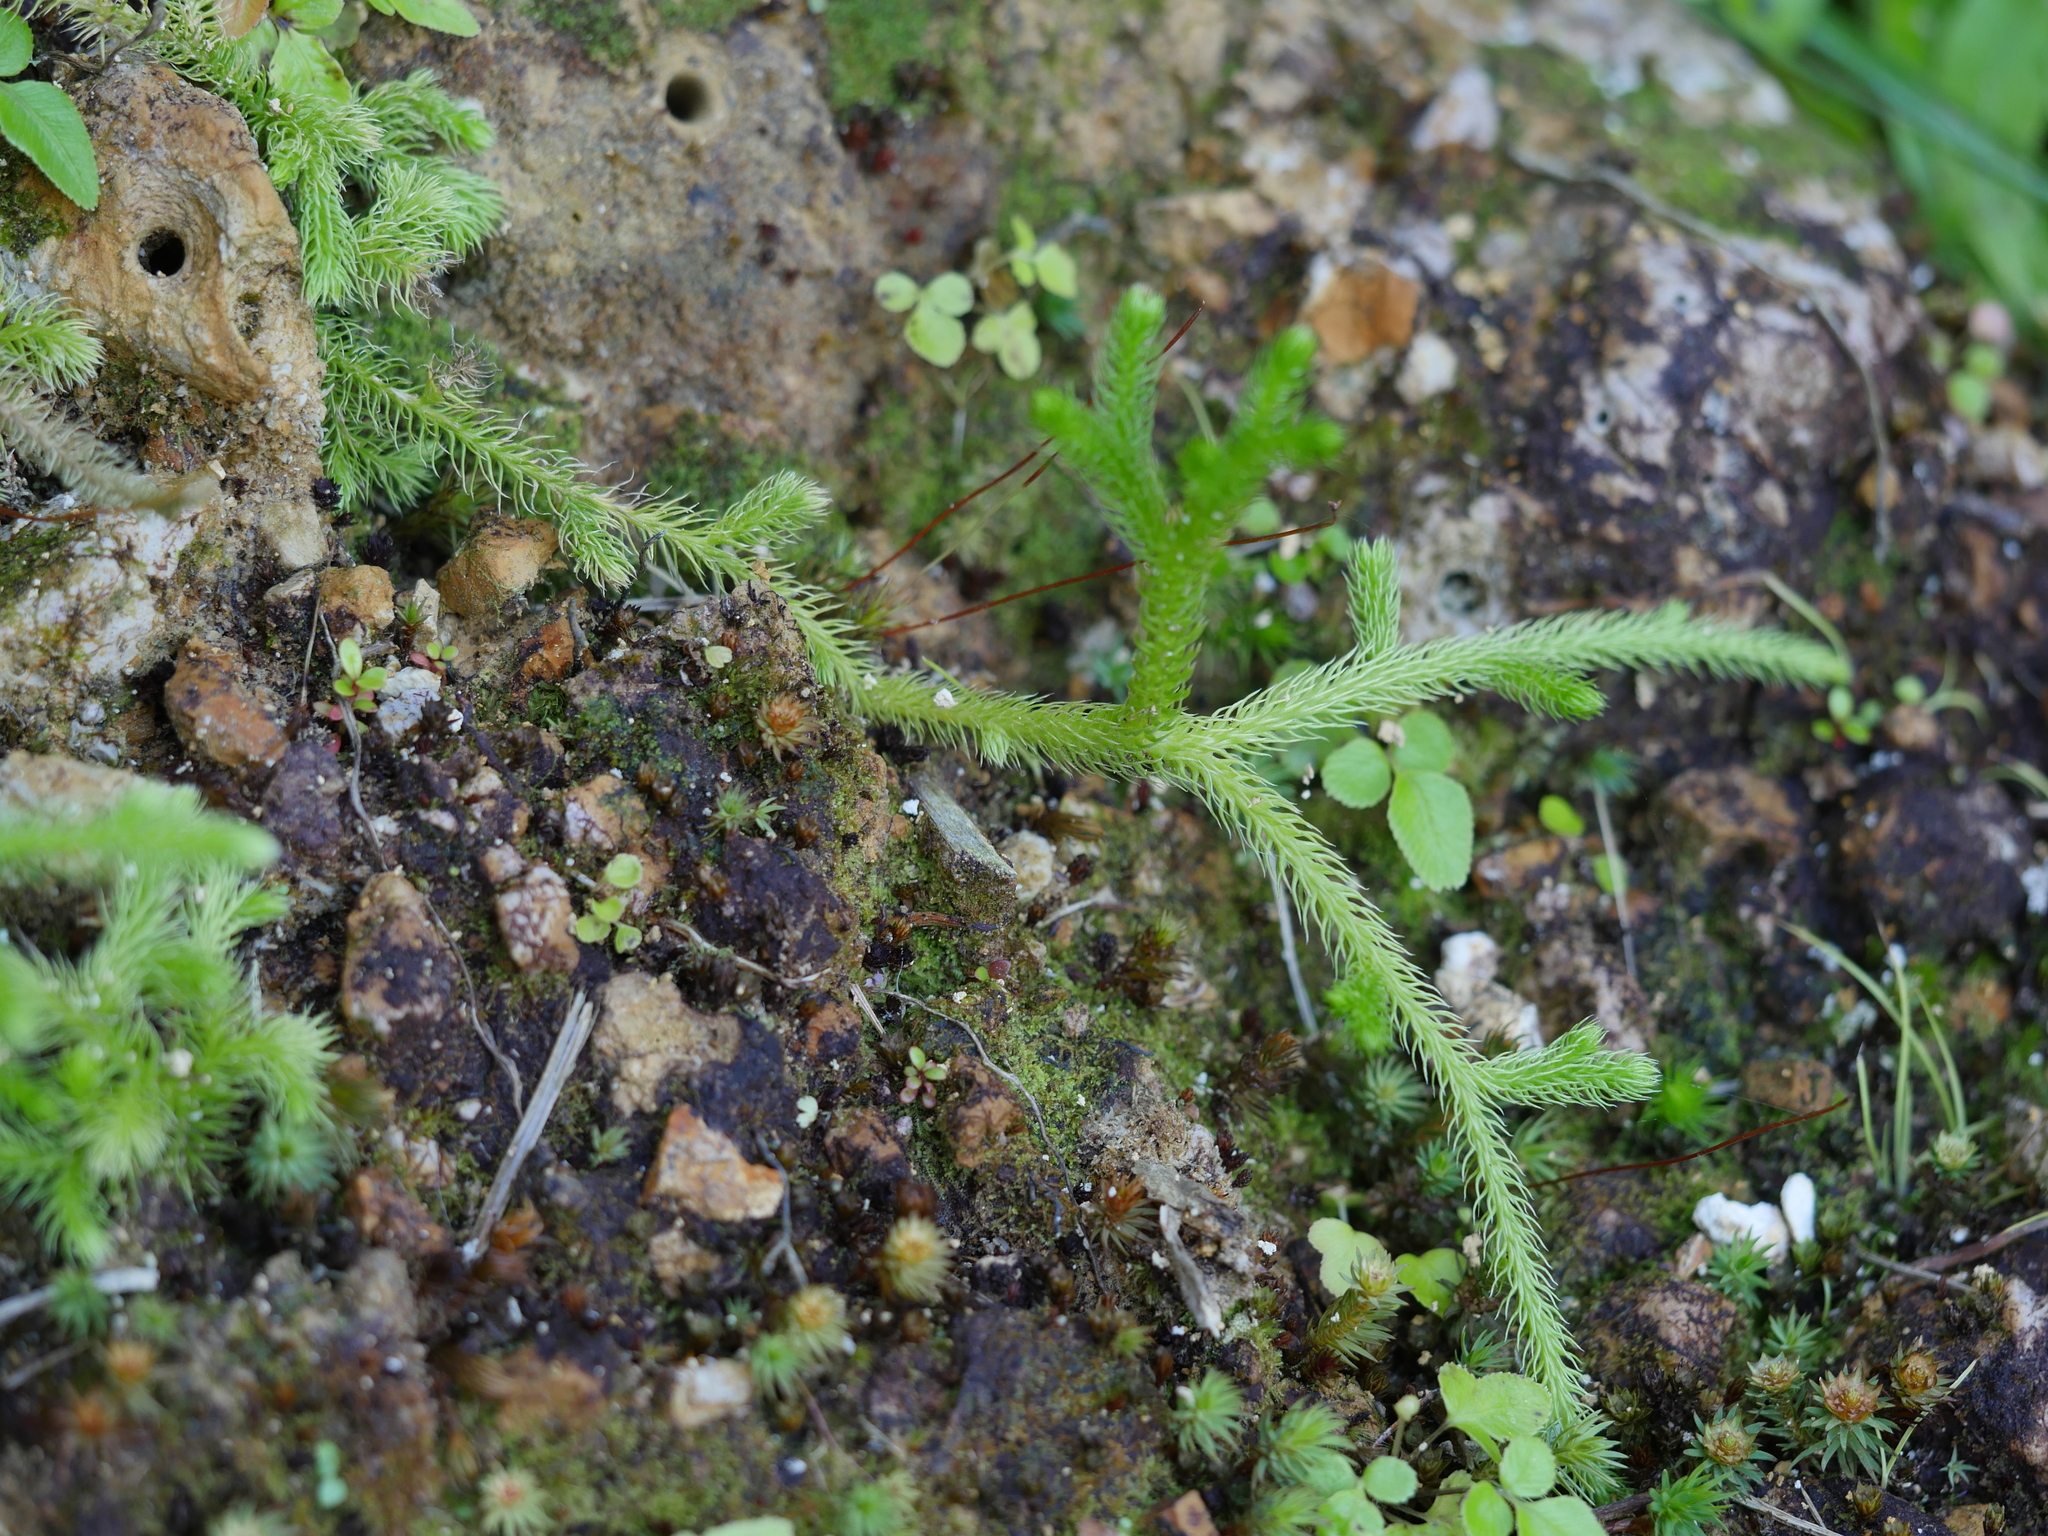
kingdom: Plantae
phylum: Tracheophyta
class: Lycopodiopsida
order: Lycopodiales
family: Lycopodiaceae
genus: Palhinhaea
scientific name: Palhinhaea cernua
